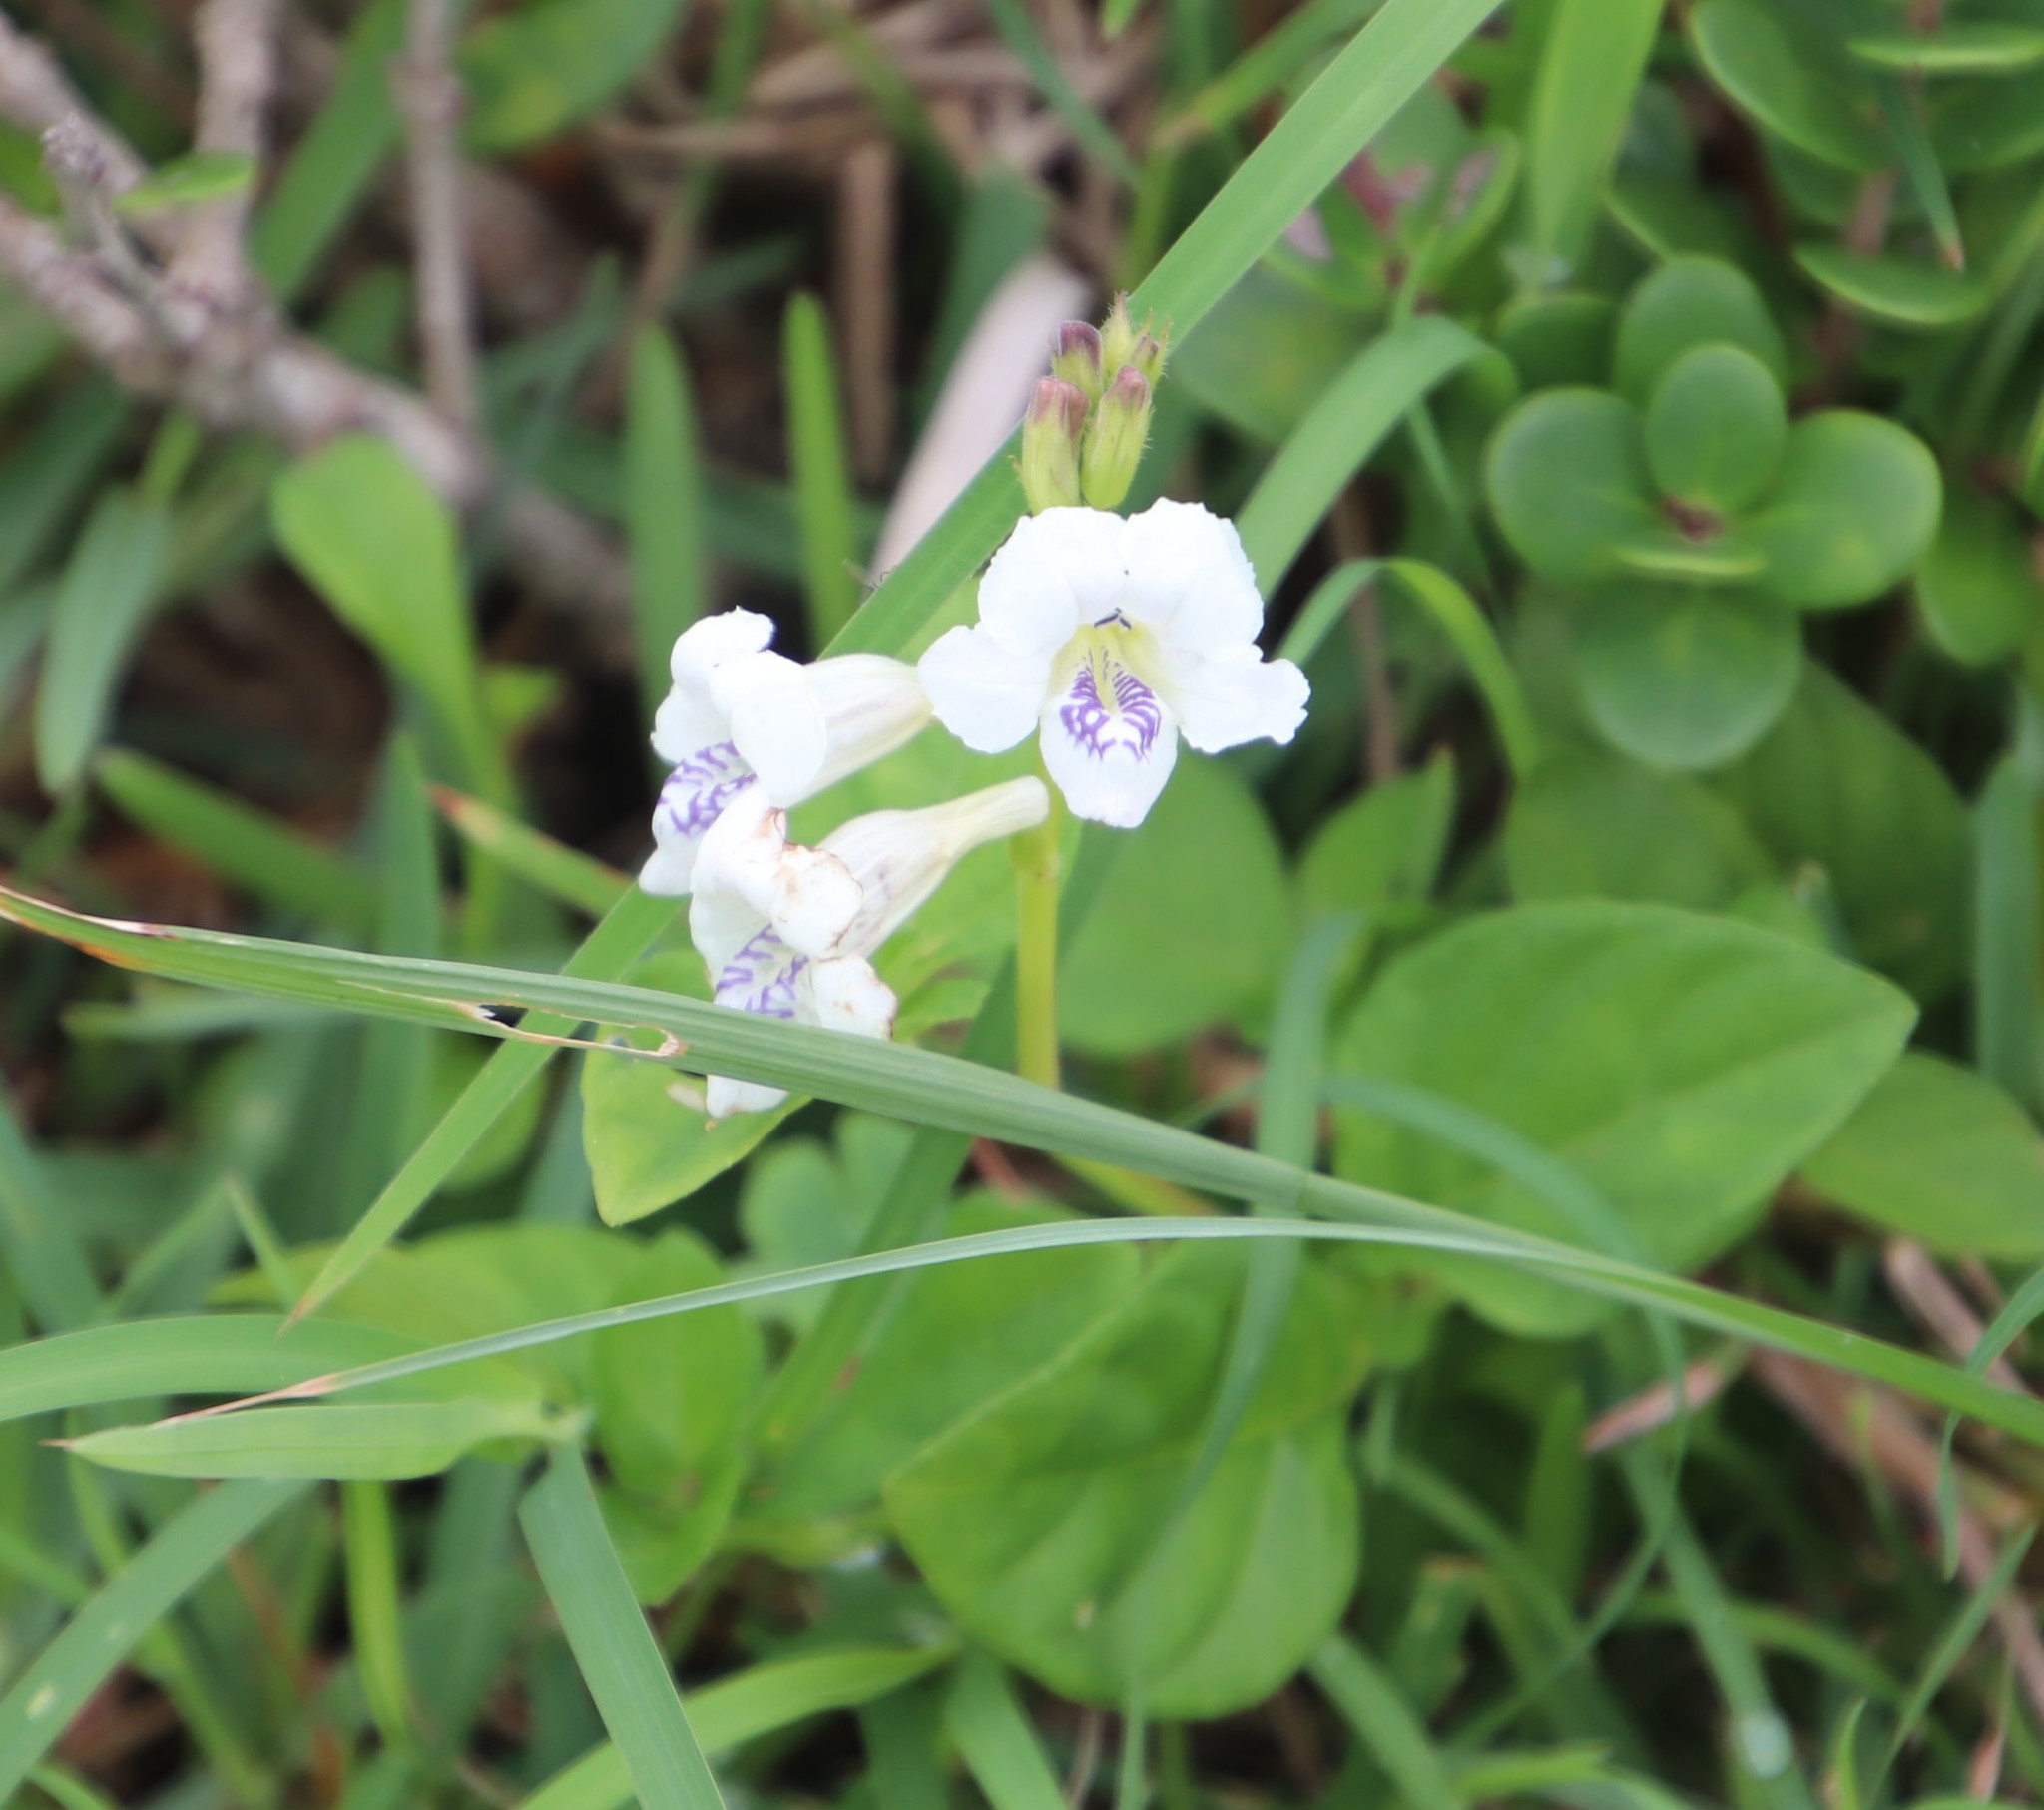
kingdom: Plantae
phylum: Tracheophyta
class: Magnoliopsida
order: Lamiales
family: Acanthaceae
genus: Asystasia
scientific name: Asystasia intrusa
